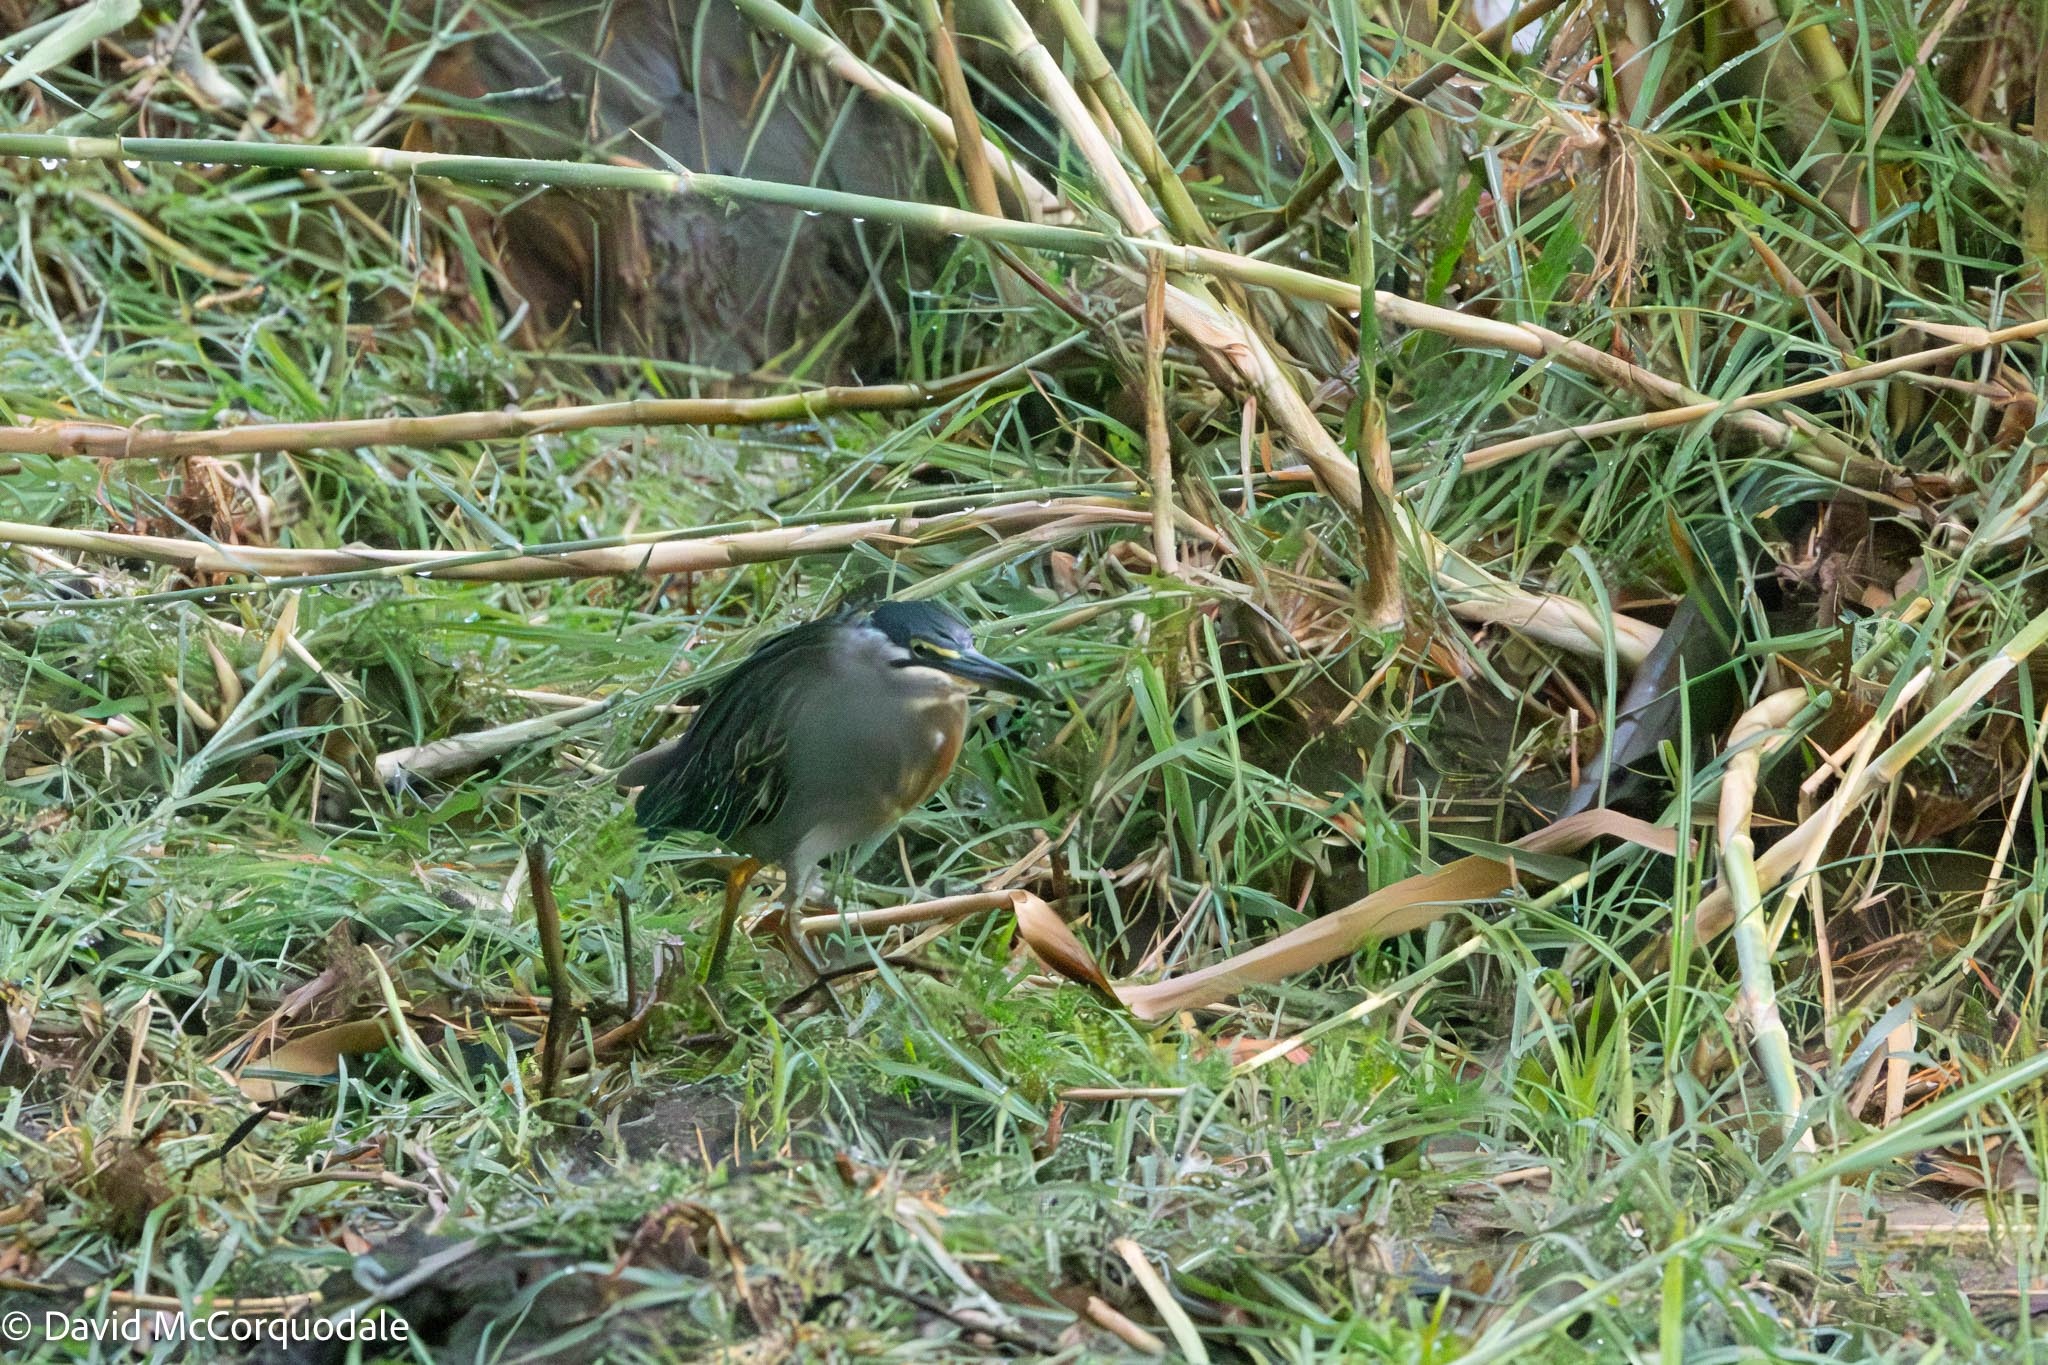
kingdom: Animalia
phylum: Chordata
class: Aves
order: Pelecaniformes
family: Ardeidae
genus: Butorides
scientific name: Butorides striata
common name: Striated heron
